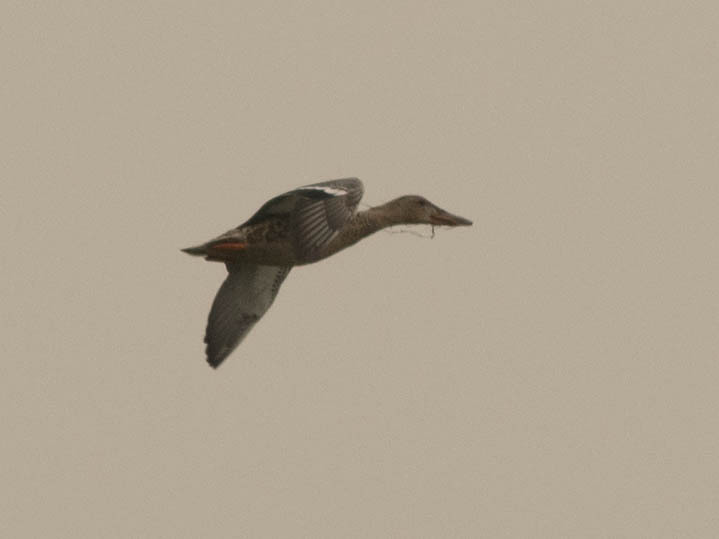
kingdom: Animalia
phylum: Chordata
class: Aves
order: Anseriformes
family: Anatidae
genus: Spatula
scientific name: Spatula clypeata
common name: Northern shoveler
